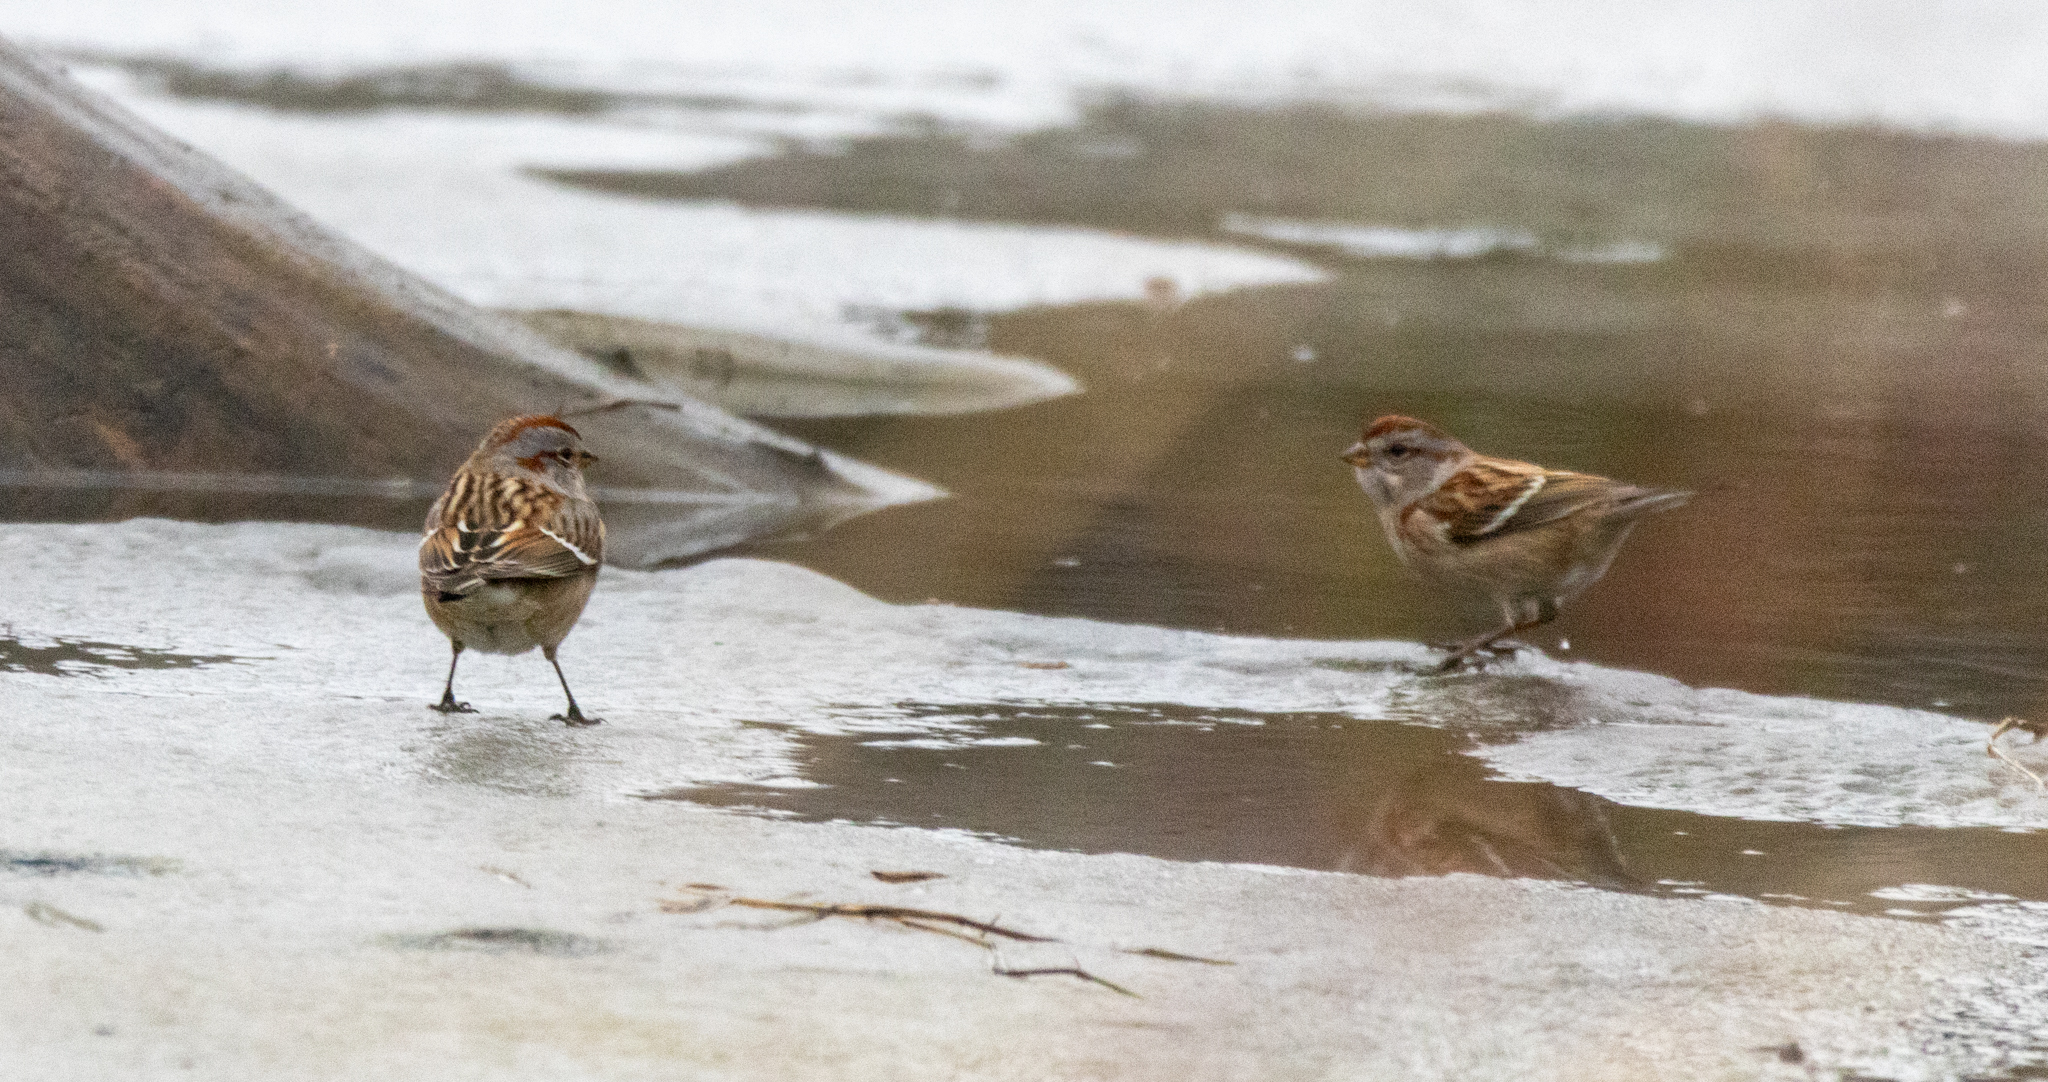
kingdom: Animalia
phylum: Chordata
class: Aves
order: Passeriformes
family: Passerellidae
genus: Spizelloides
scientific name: Spizelloides arborea
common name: American tree sparrow
